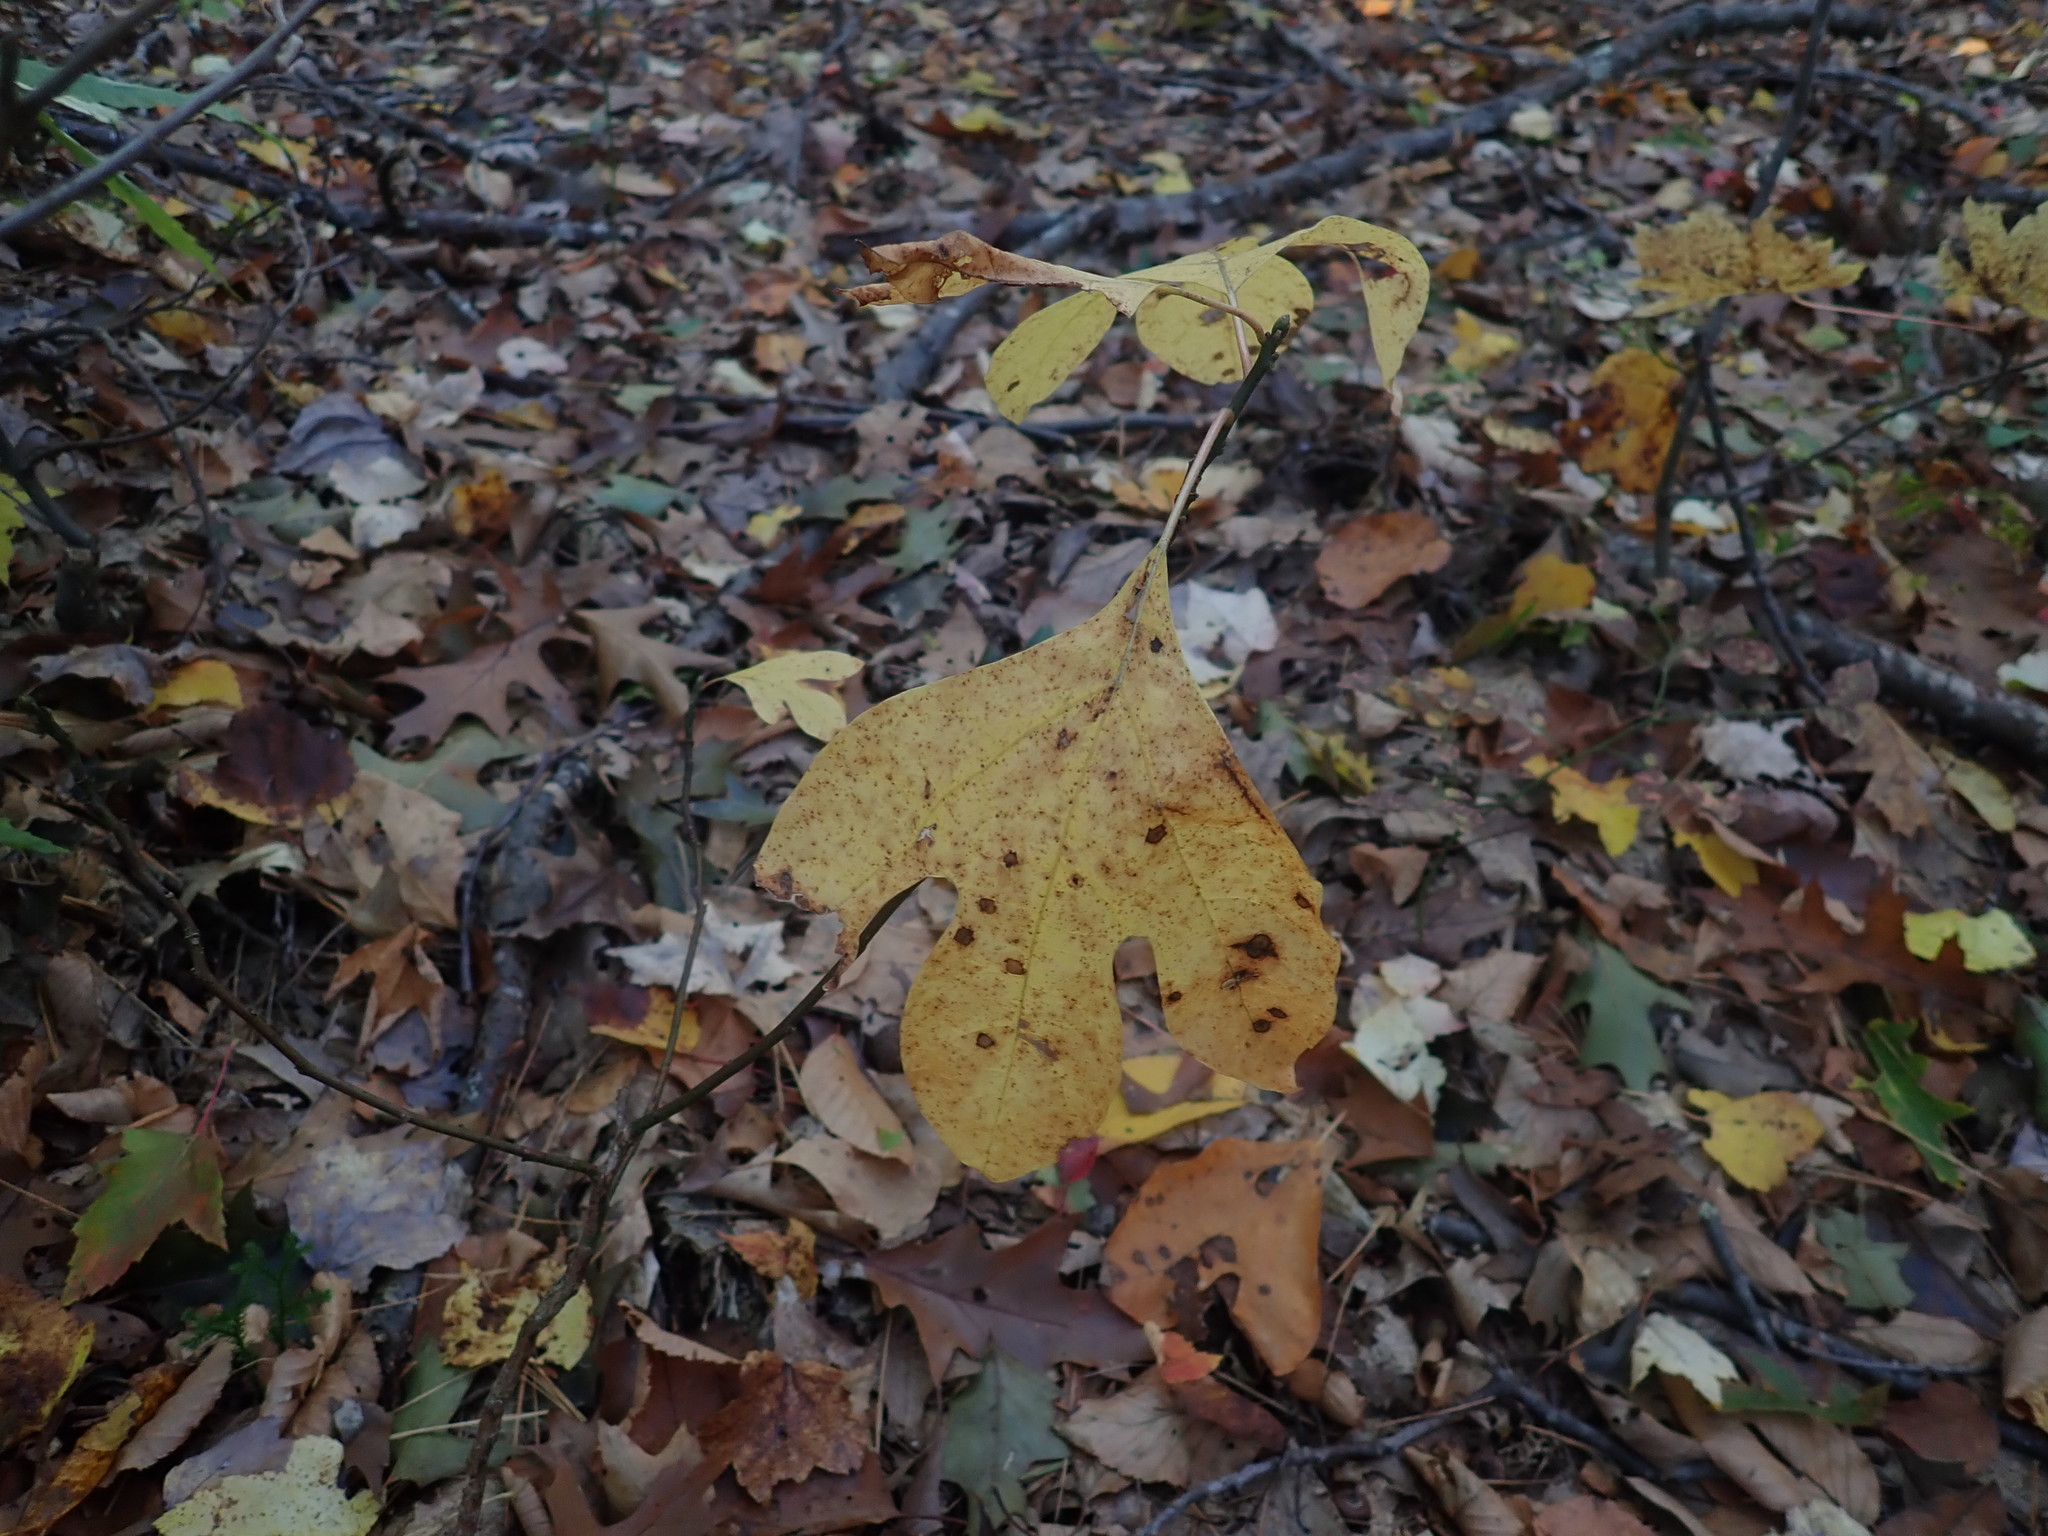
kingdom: Plantae
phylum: Tracheophyta
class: Magnoliopsida
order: Laurales
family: Lauraceae
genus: Sassafras
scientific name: Sassafras albidum
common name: Sassafras
